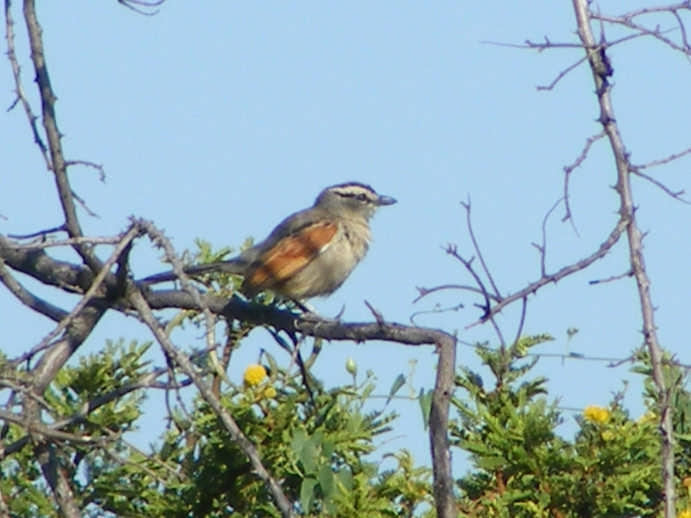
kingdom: Animalia
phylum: Chordata
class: Aves
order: Passeriformes
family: Malaconotidae
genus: Tchagra
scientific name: Tchagra australis
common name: Brown-crowned tchagra
